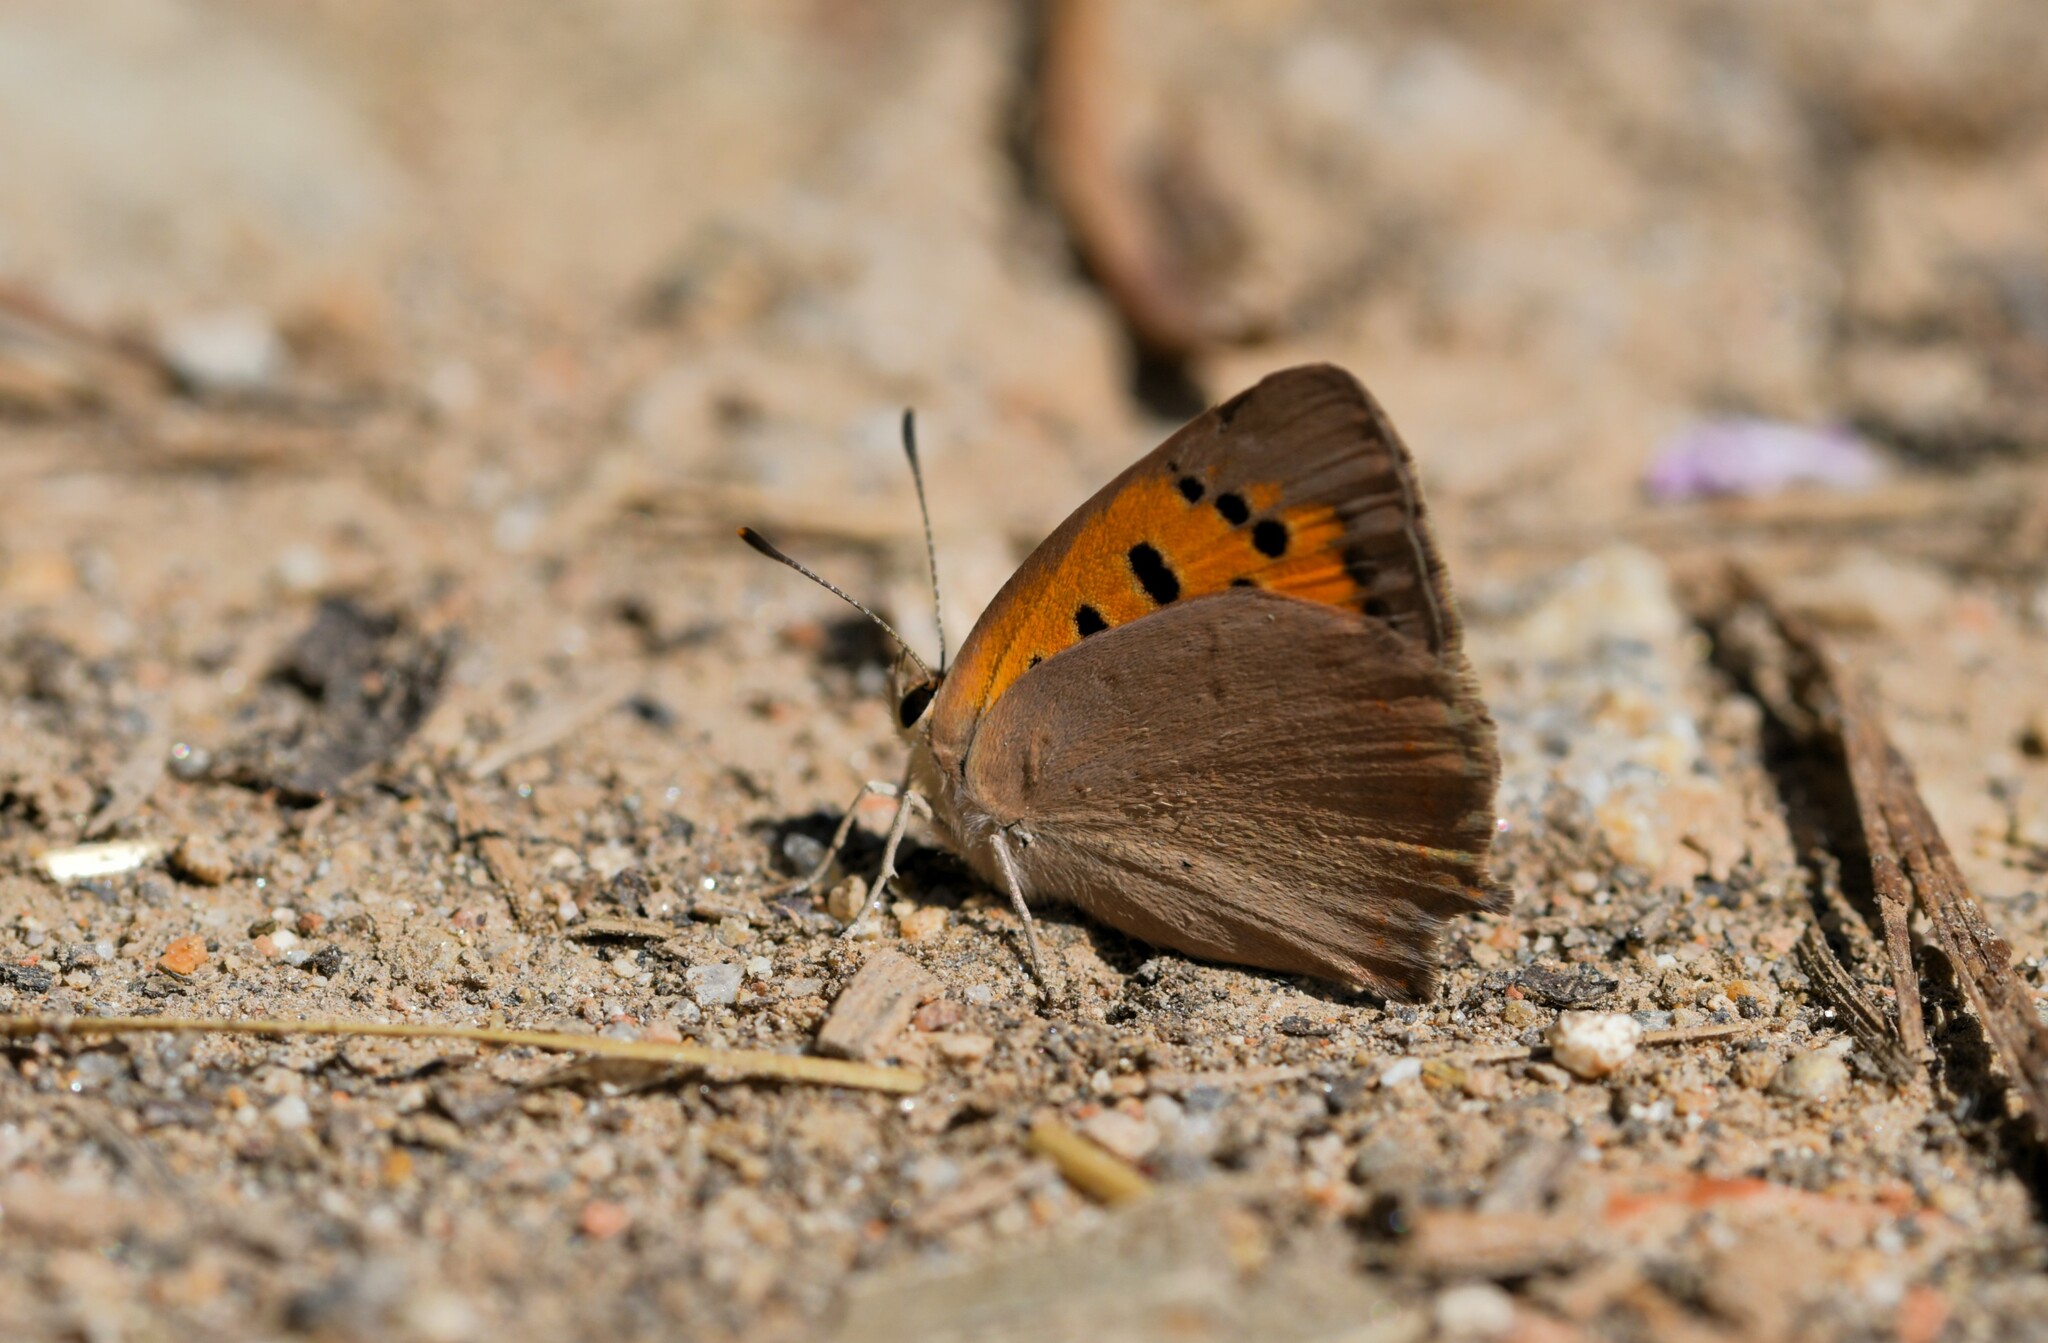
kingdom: Animalia
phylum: Arthropoda
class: Insecta
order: Lepidoptera
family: Lycaenidae
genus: Lycaena
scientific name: Lycaena phlaeas
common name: Small copper
